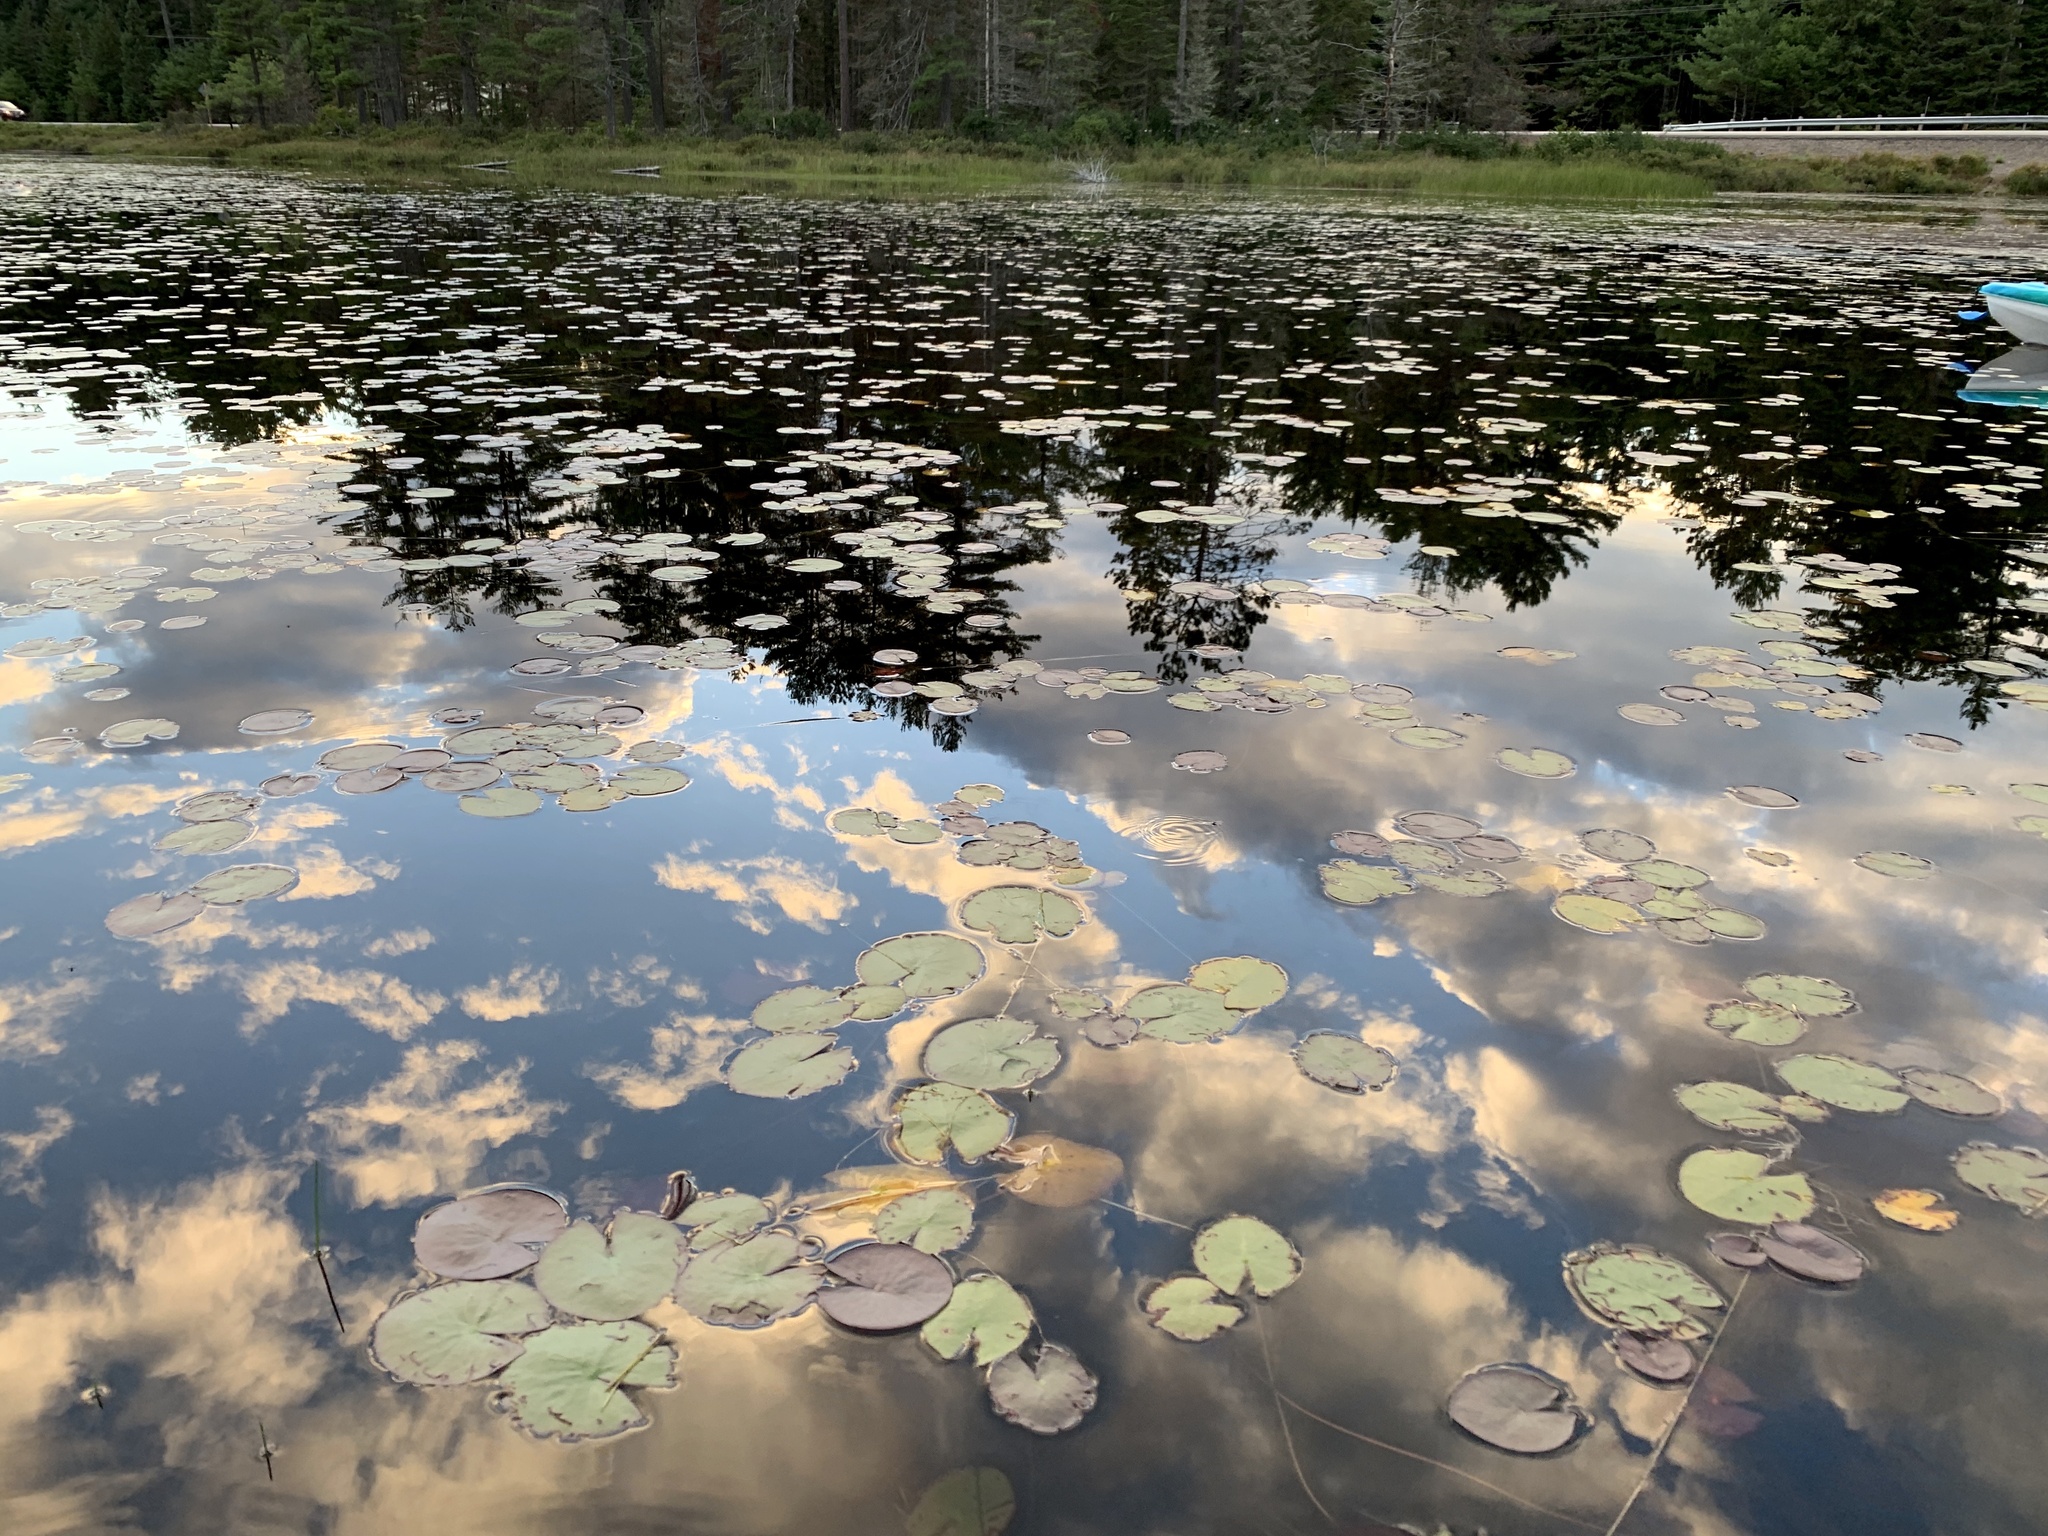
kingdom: Plantae
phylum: Tracheophyta
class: Magnoliopsida
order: Nymphaeales
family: Nymphaeaceae
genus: Nymphaea
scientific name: Nymphaea odorata
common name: Fragrant water-lily
